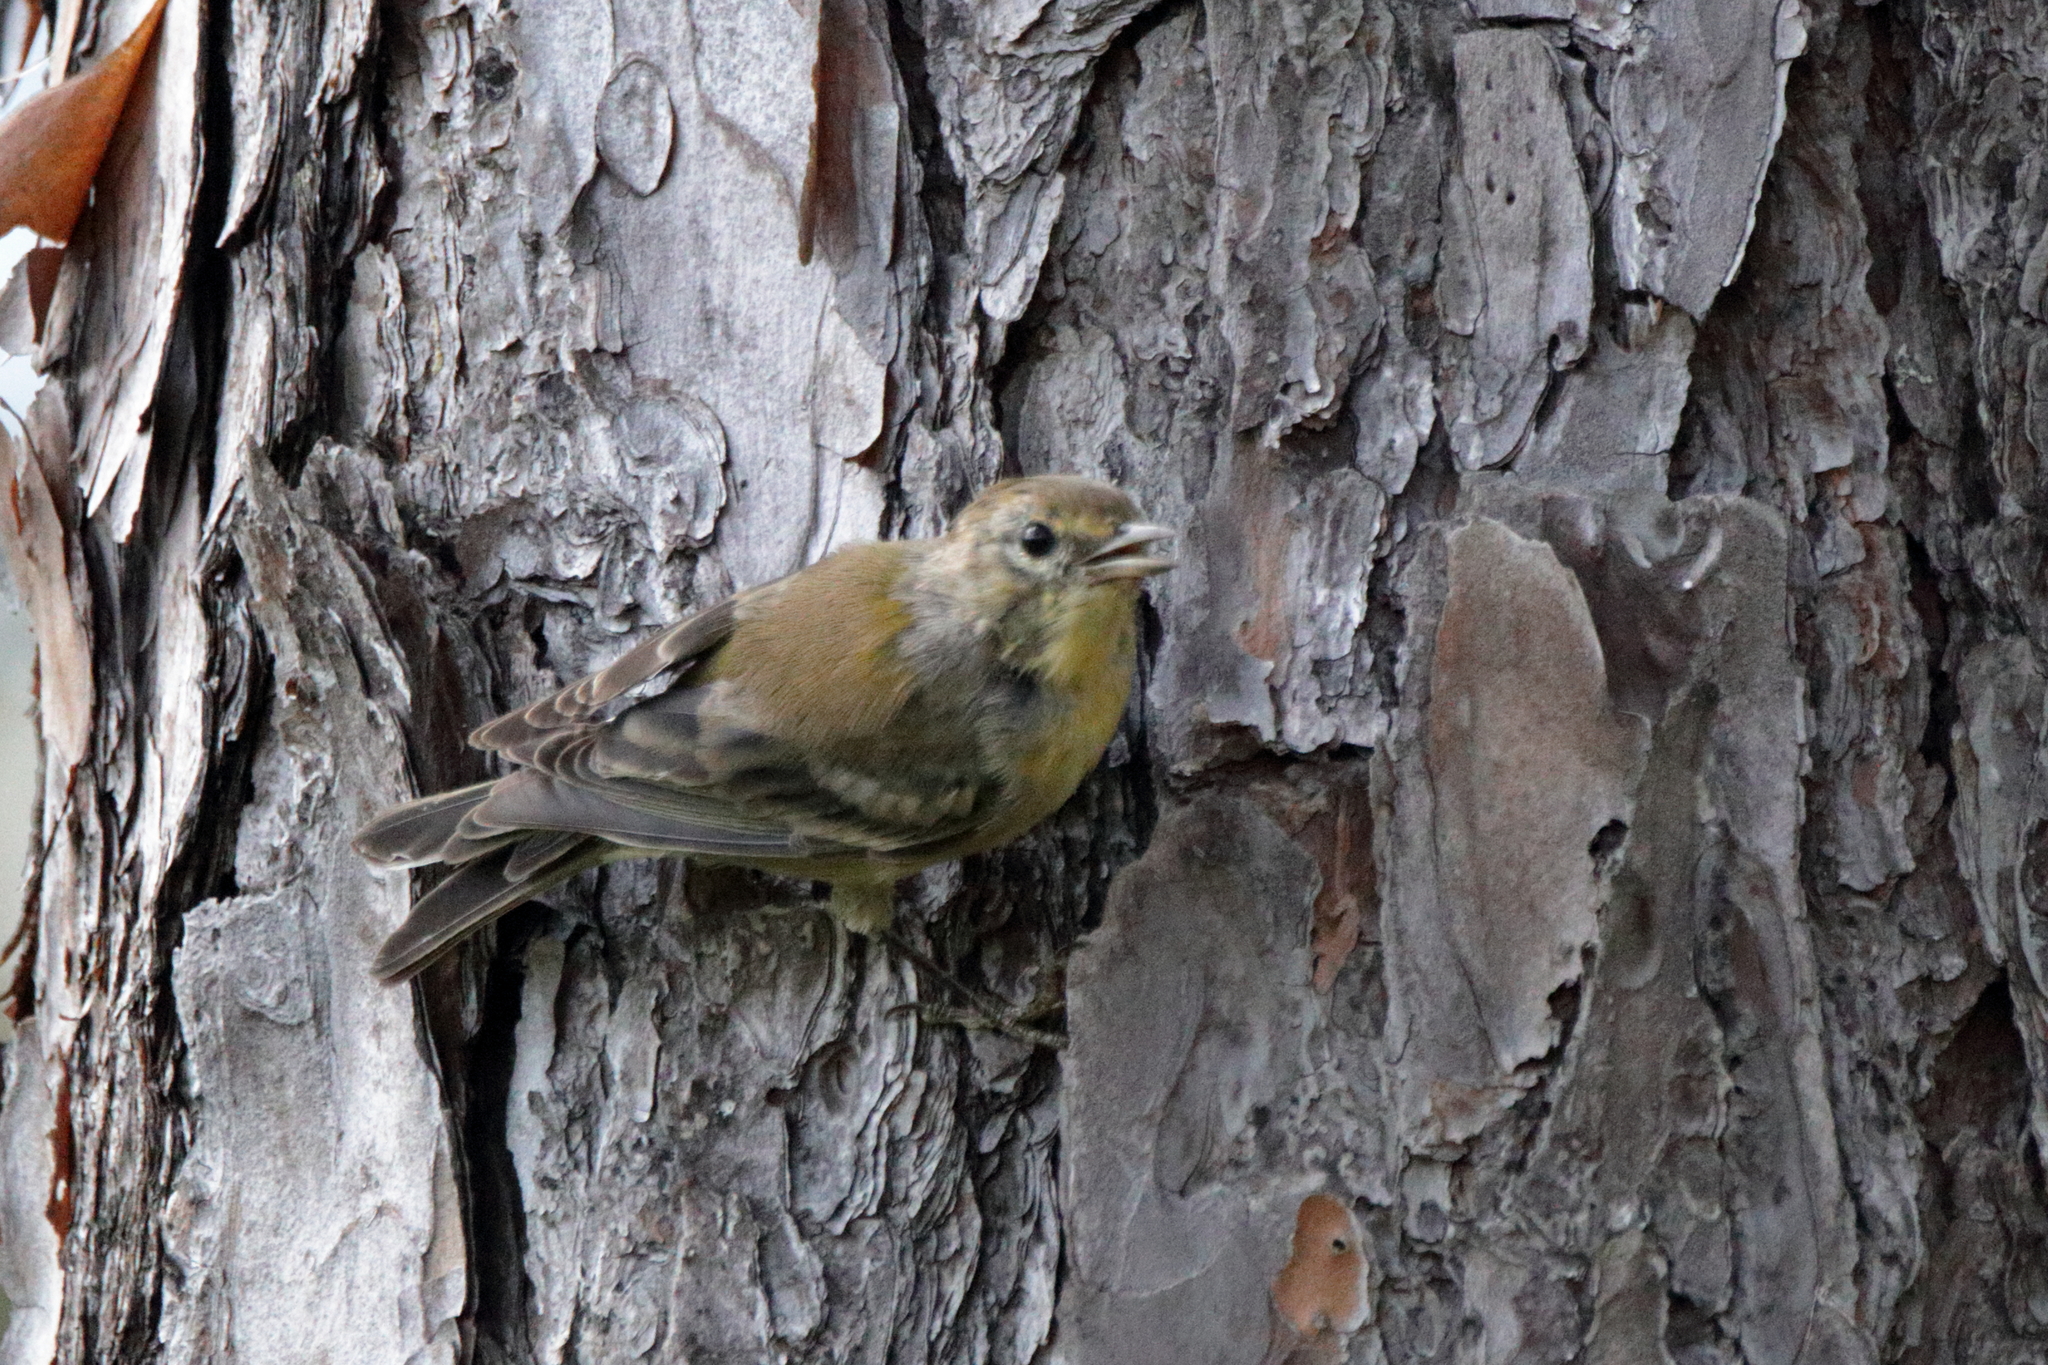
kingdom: Animalia
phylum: Chordata
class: Aves
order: Passeriformes
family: Parulidae
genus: Setophaga
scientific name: Setophaga pinus
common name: Pine warbler
